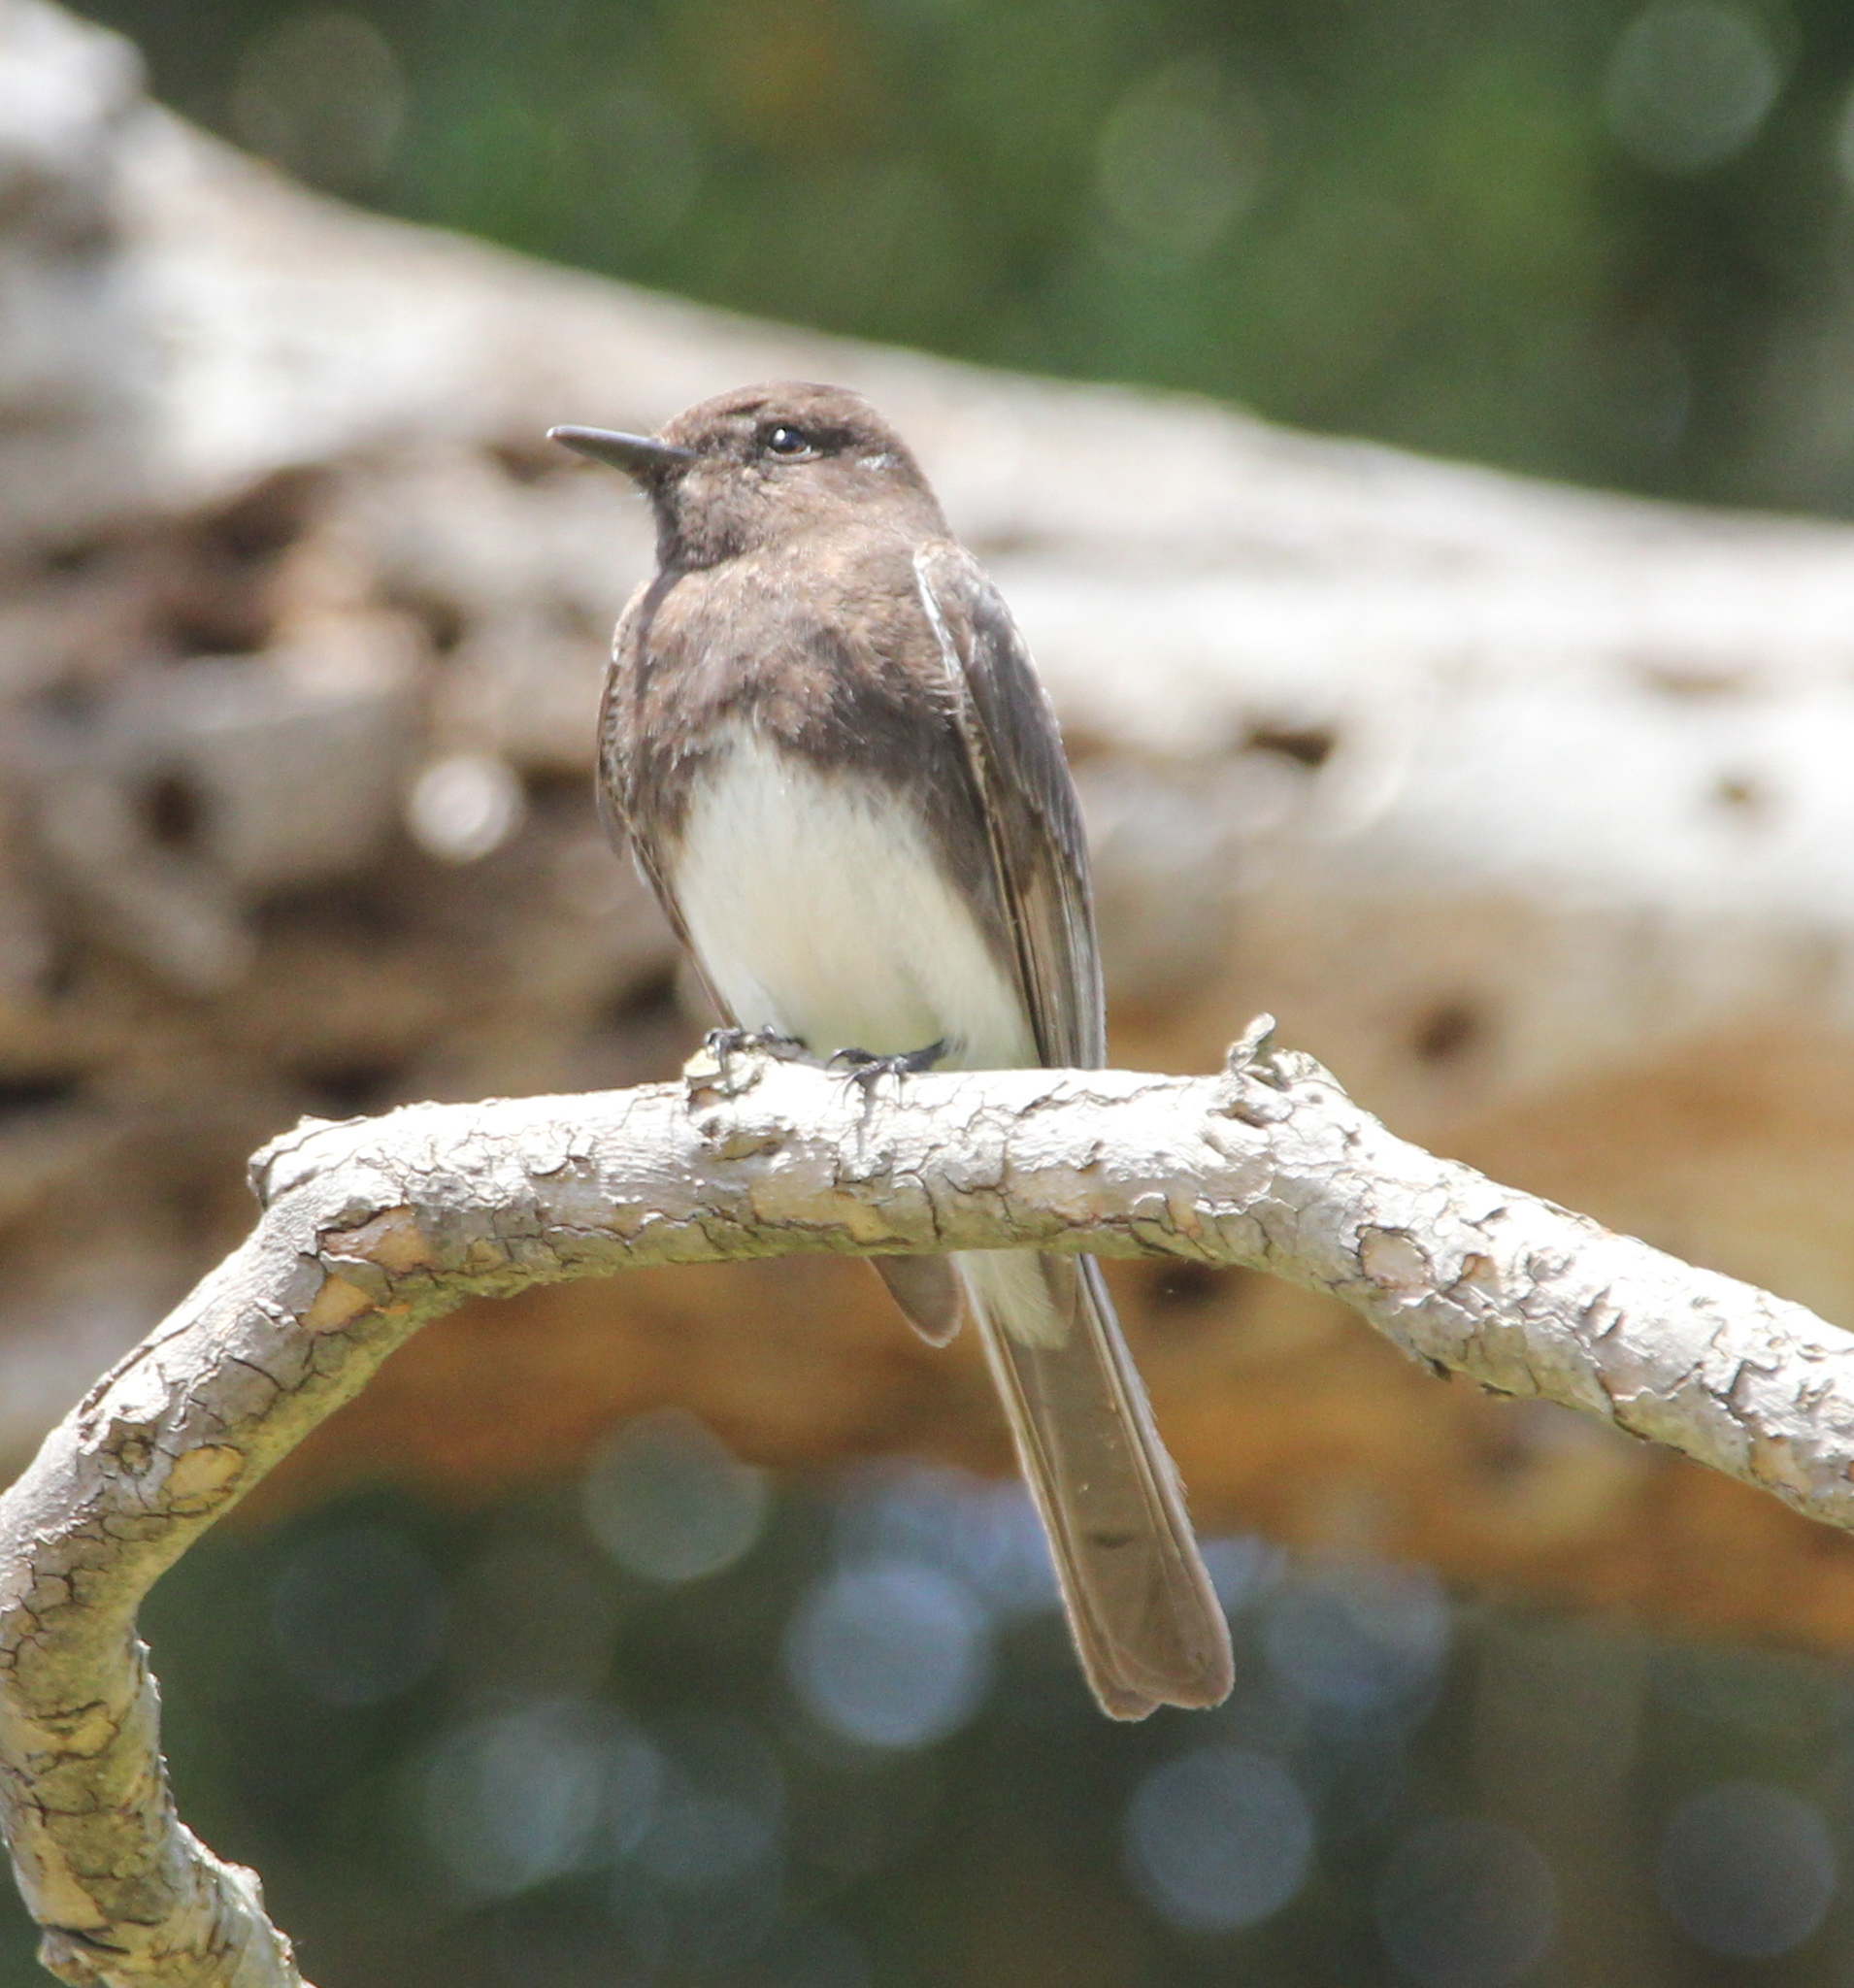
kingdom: Animalia
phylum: Chordata
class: Aves
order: Passeriformes
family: Tyrannidae
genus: Sayornis
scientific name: Sayornis nigricans
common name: Black phoebe
